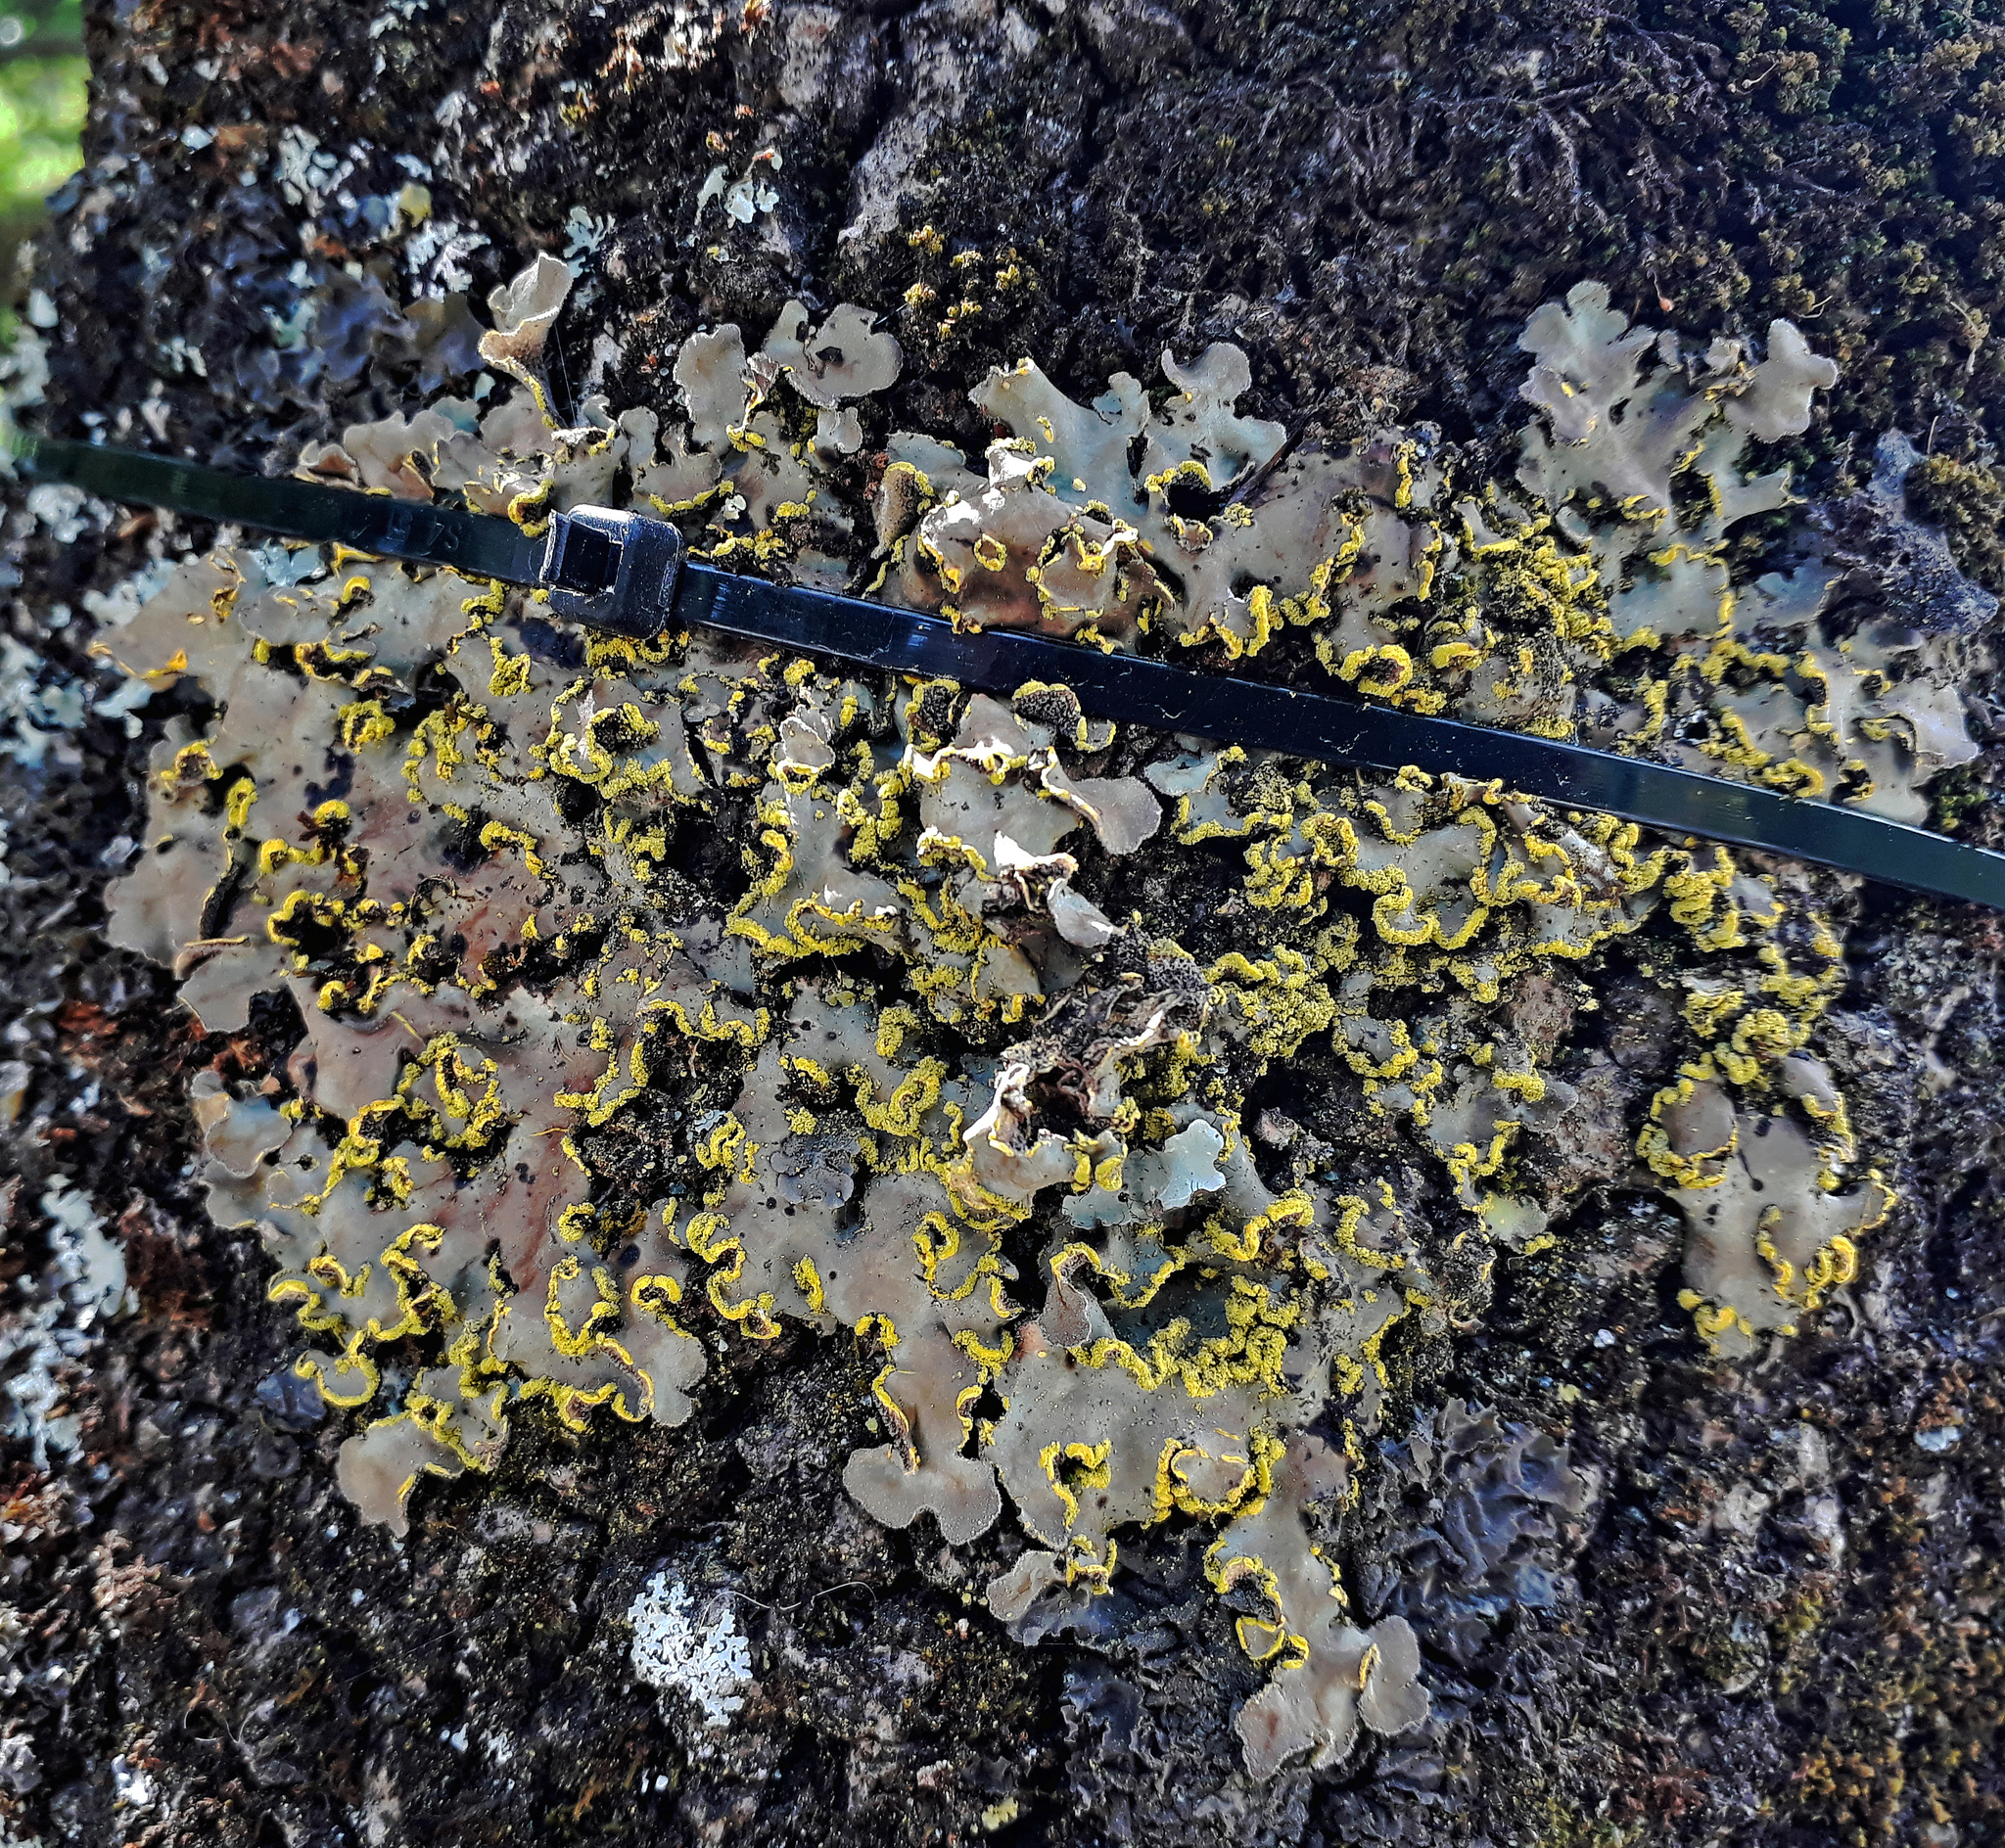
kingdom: Fungi
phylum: Ascomycota
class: Lecanoromycetes
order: Peltigerales
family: Lobariaceae
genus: Pseudocyphellaria
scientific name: Pseudocyphellaria aurata
